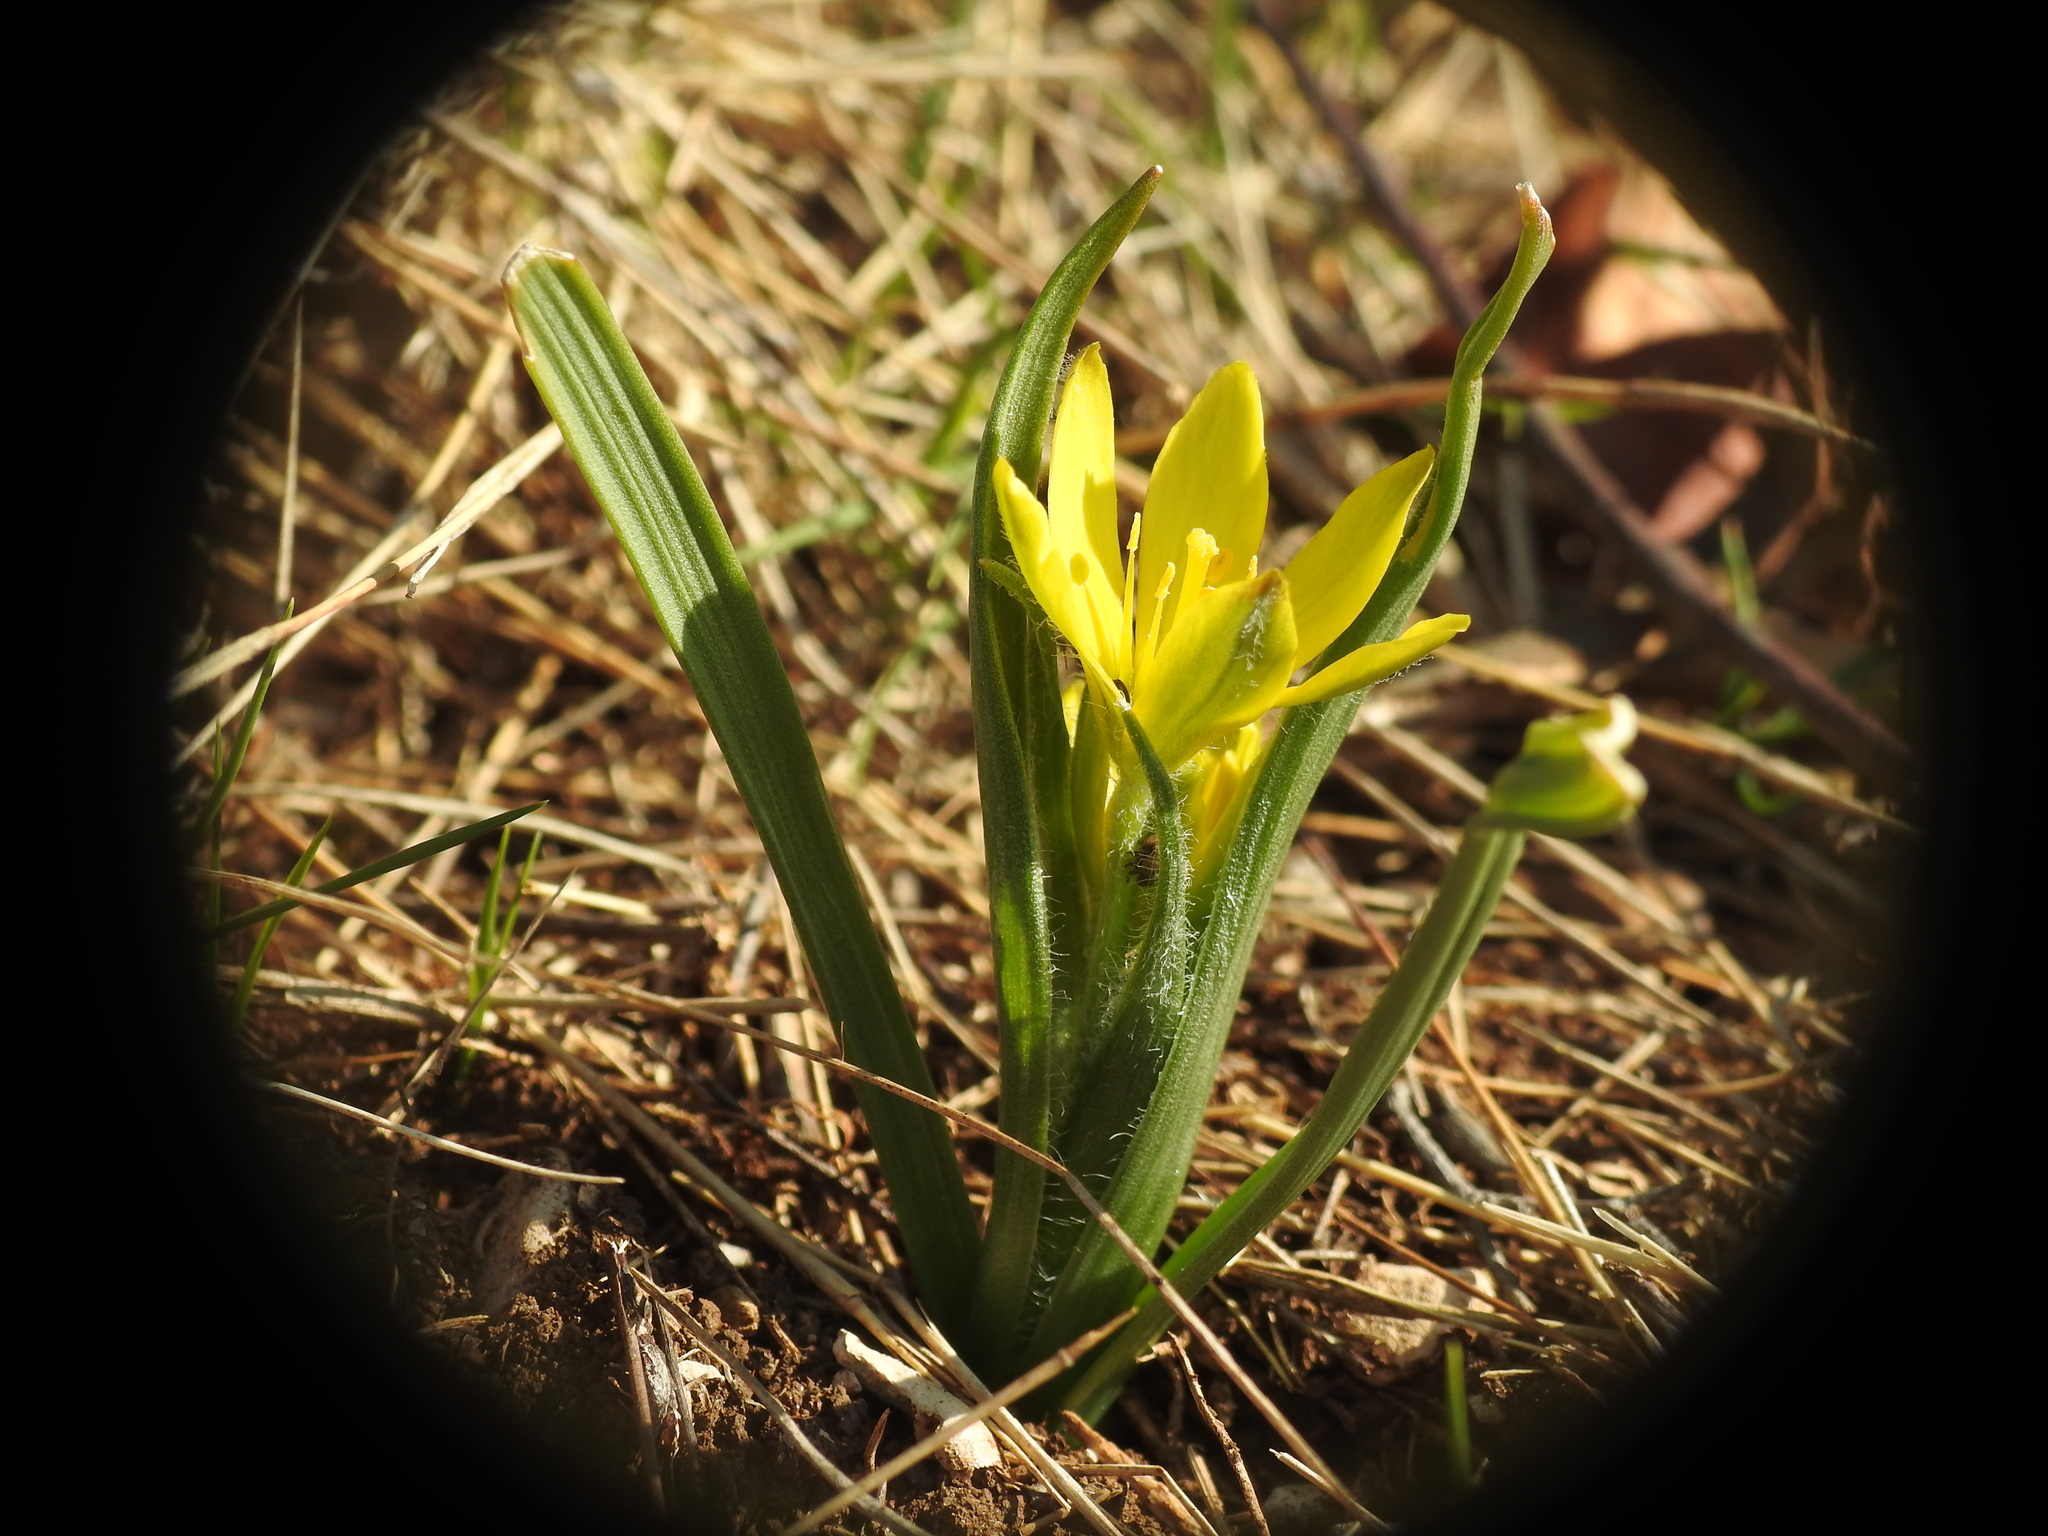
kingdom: Plantae
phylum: Tracheophyta
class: Liliopsida
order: Liliales
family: Liliaceae
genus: Gagea
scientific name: Gagea lacaitae
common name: Gagée de lacaita
